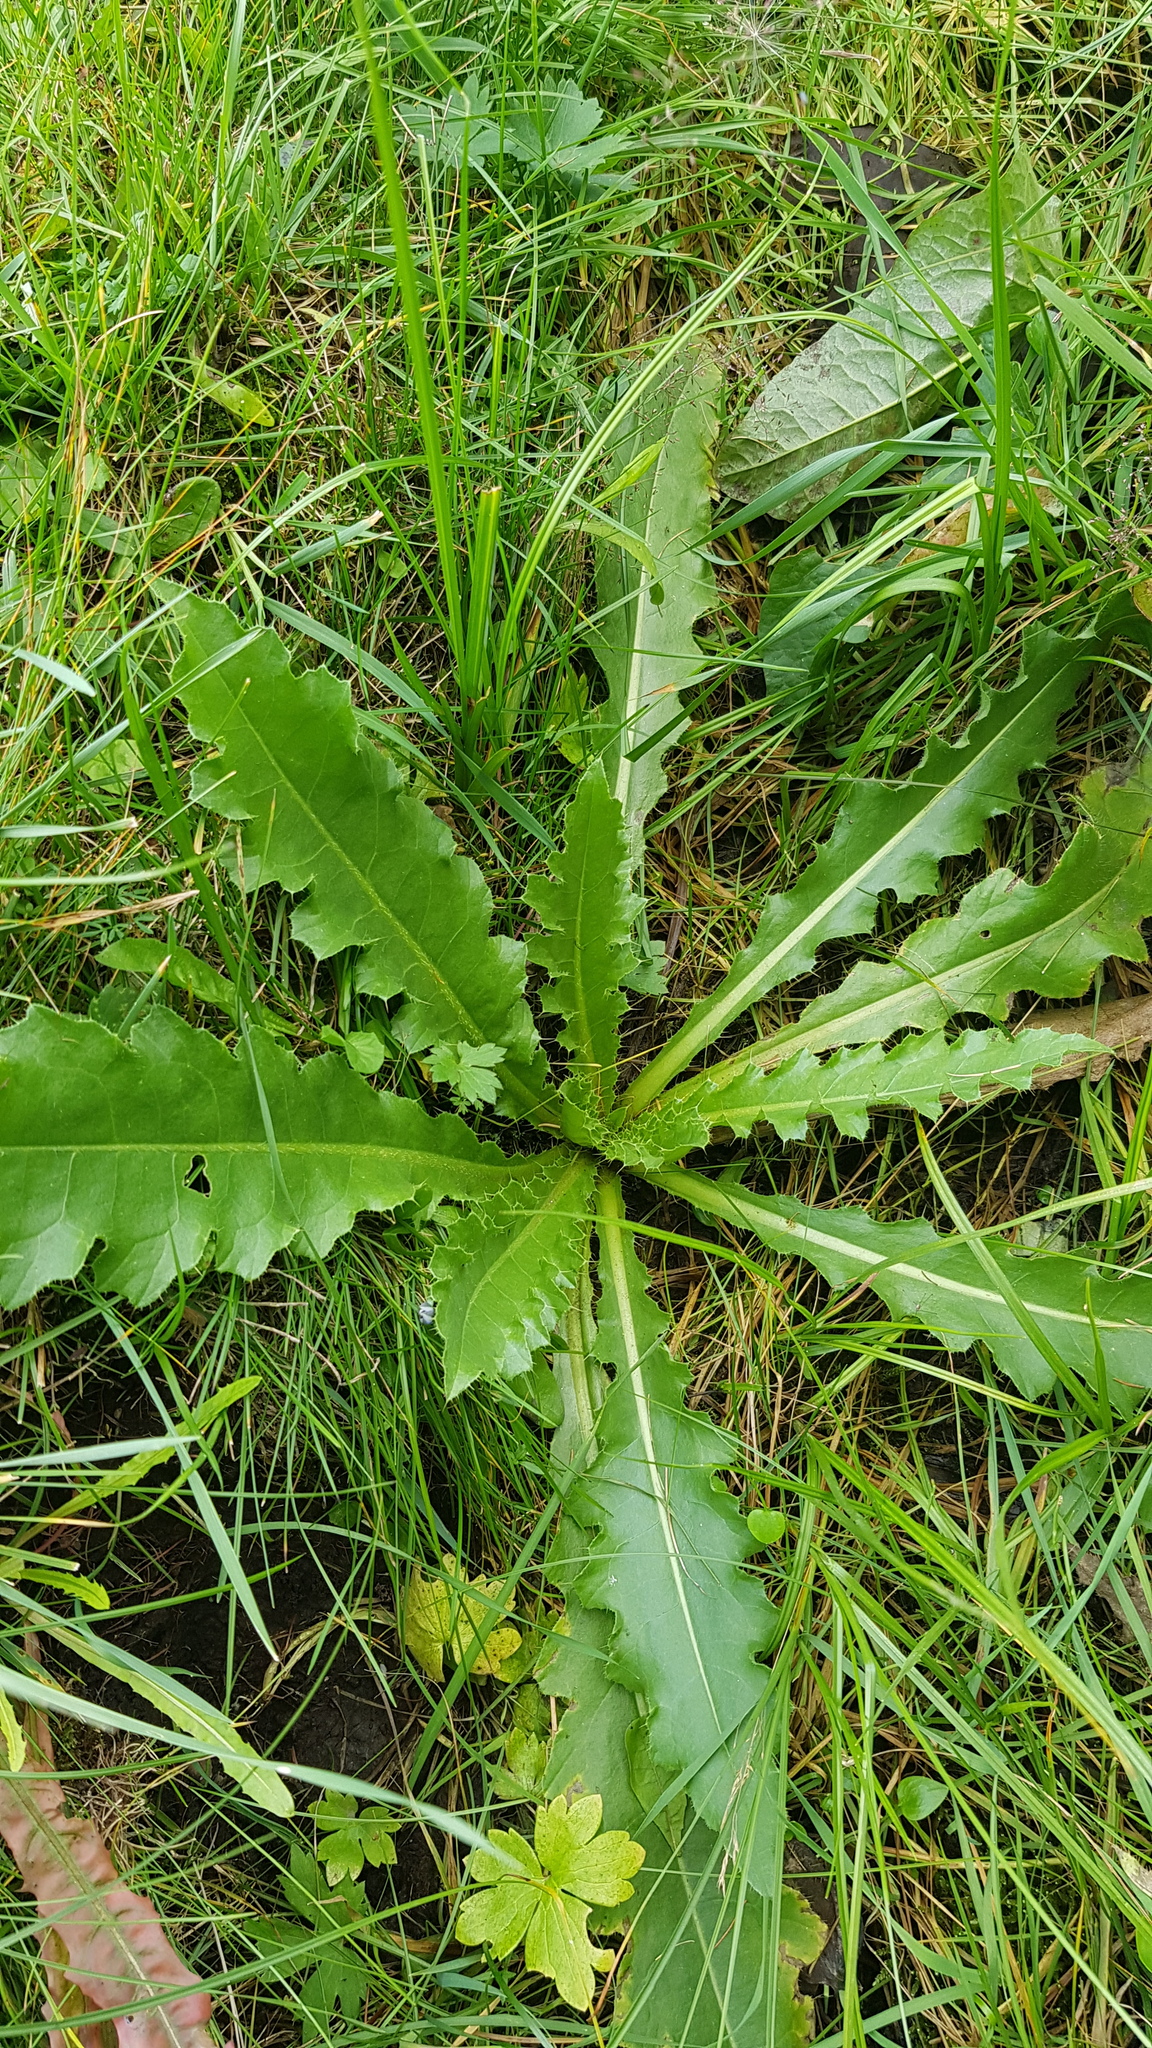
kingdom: Plantae
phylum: Tracheophyta
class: Magnoliopsida
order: Asterales
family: Asteraceae
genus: Cirsium
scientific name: Cirsium esculentum
